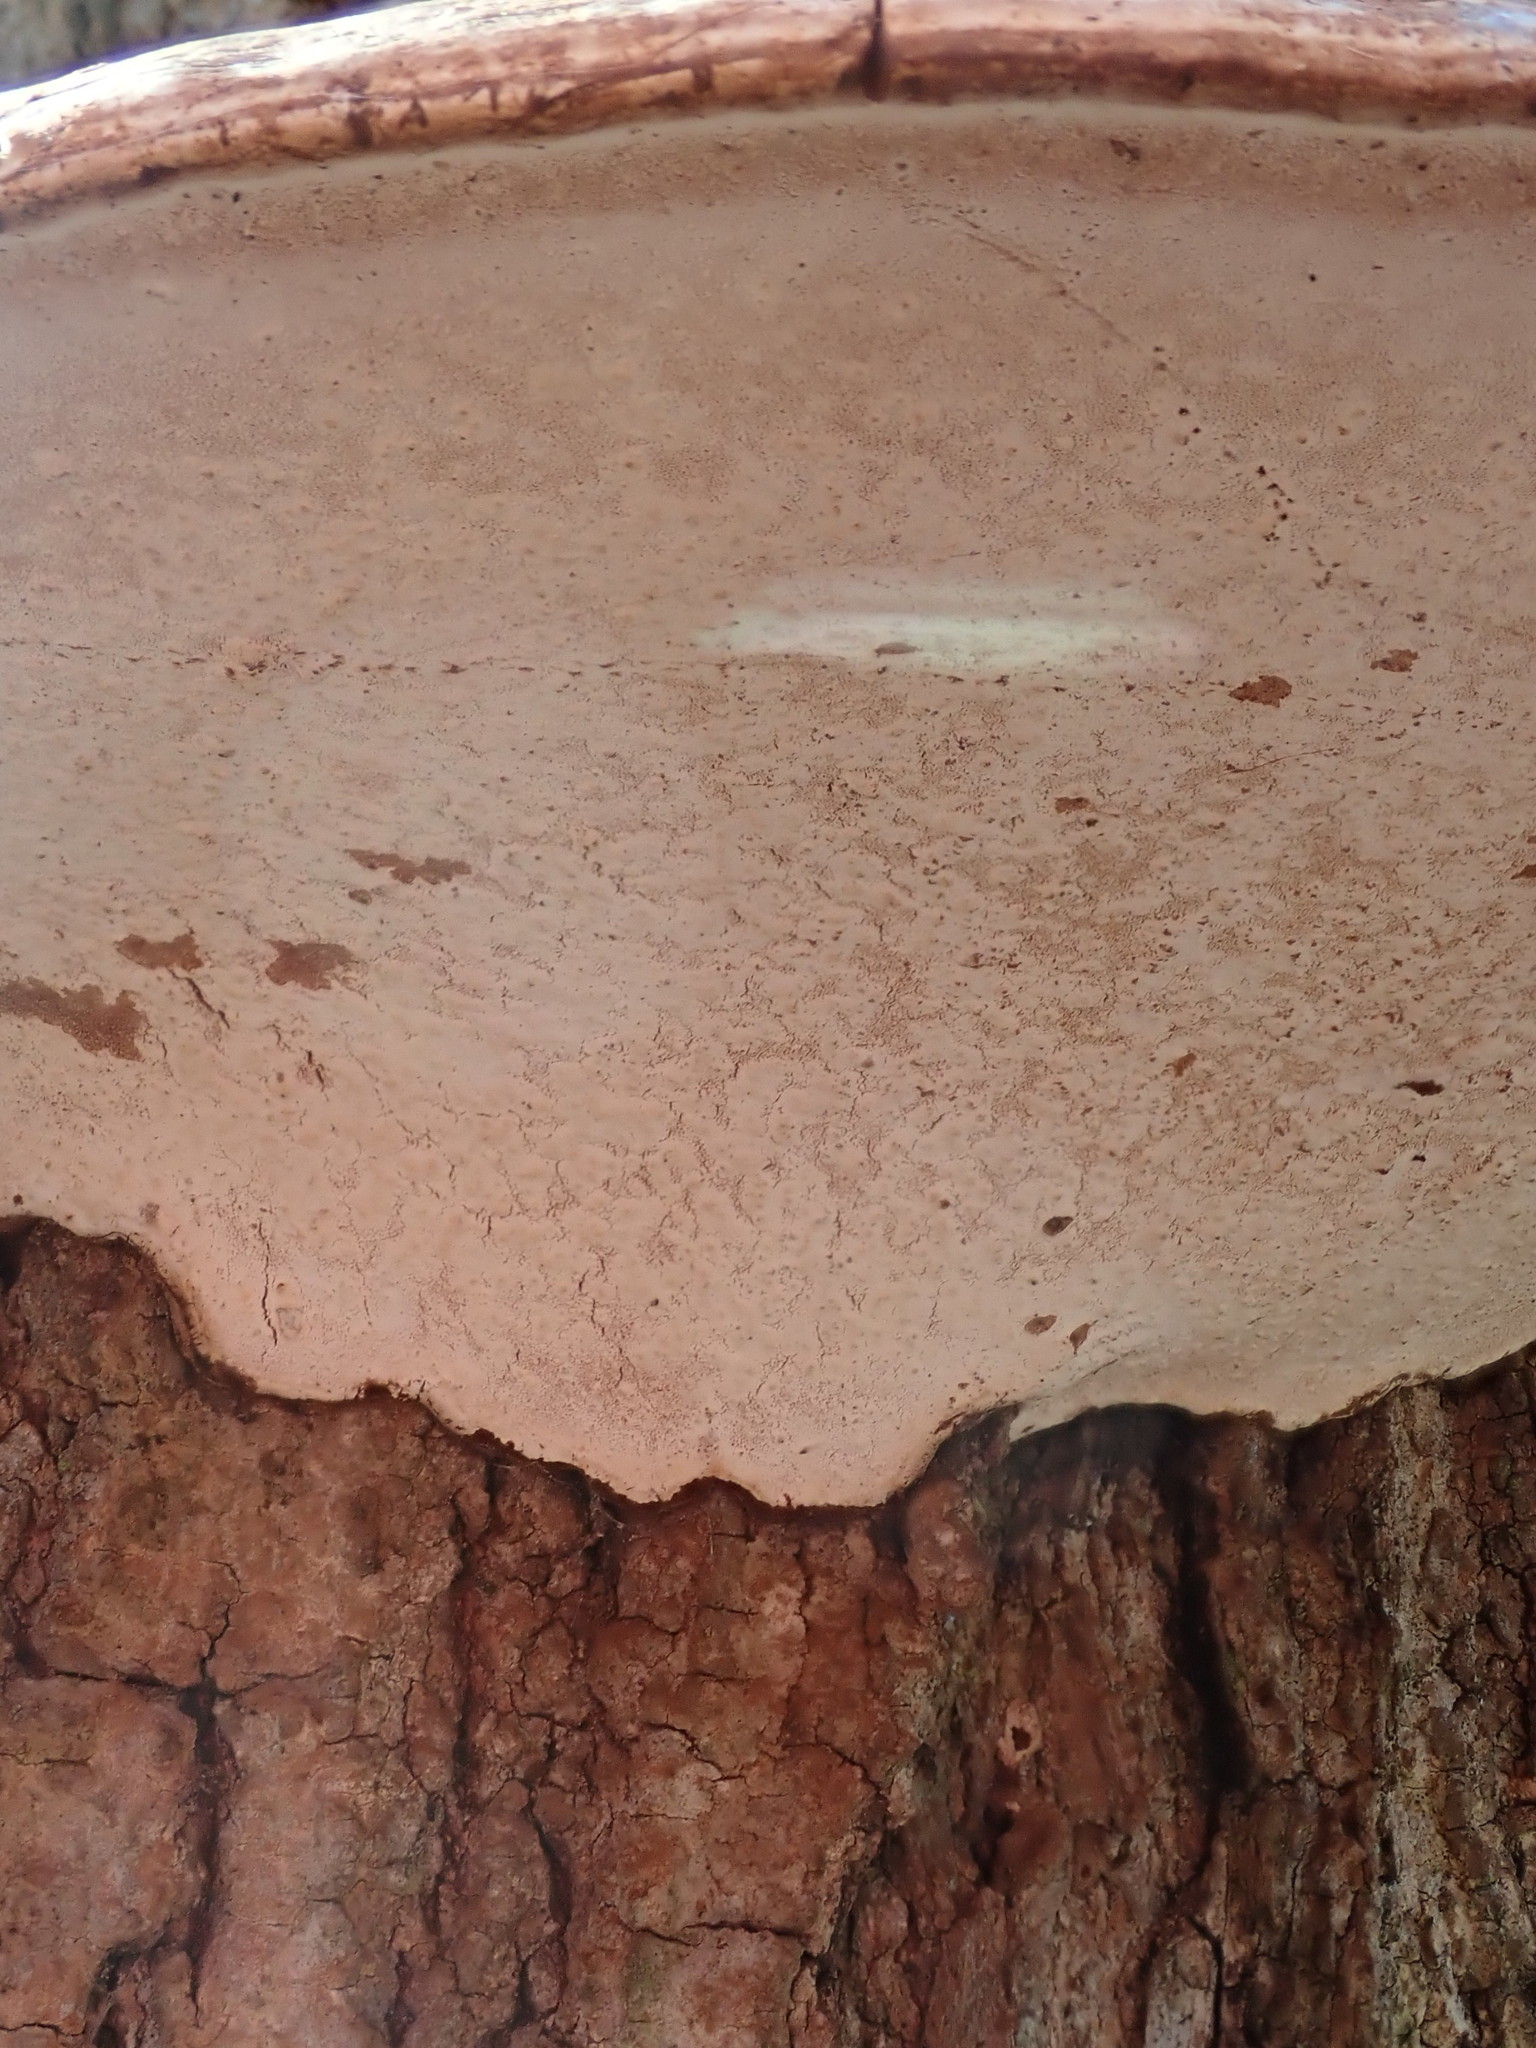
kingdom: Fungi
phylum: Basidiomycota
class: Agaricomycetes
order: Polyporales
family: Polyporaceae
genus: Ganoderma
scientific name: Ganoderma applanatum
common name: Artist's bracket
